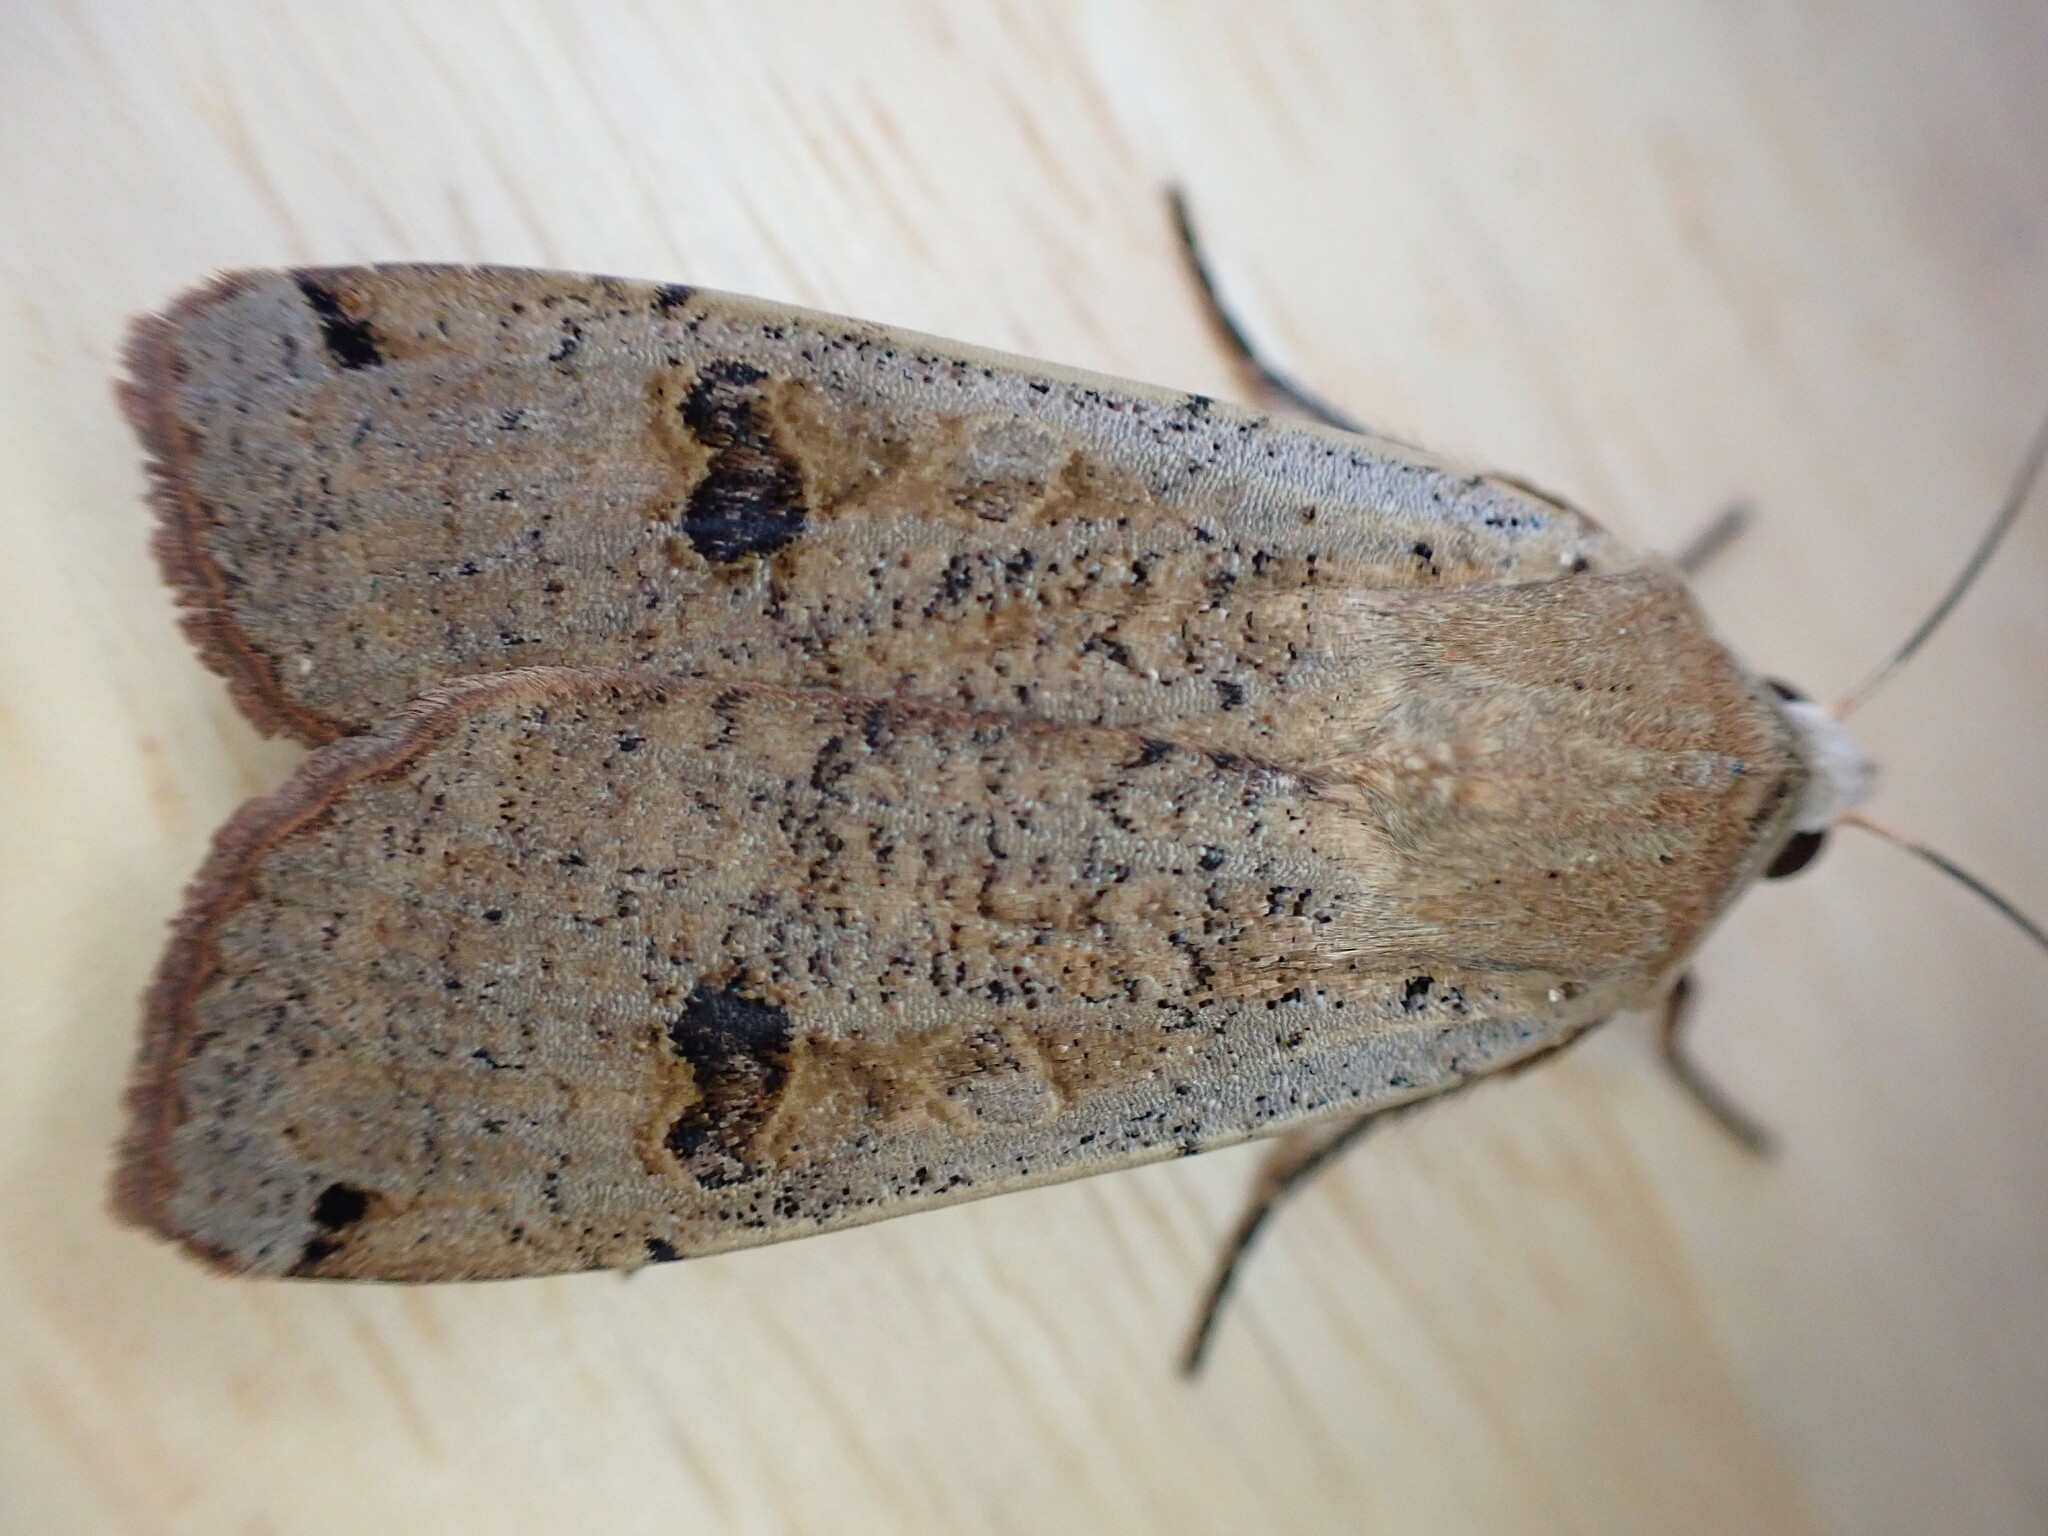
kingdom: Animalia
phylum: Arthropoda
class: Insecta
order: Lepidoptera
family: Noctuidae
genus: Noctua
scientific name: Noctua pronuba
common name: Large yellow underwing
